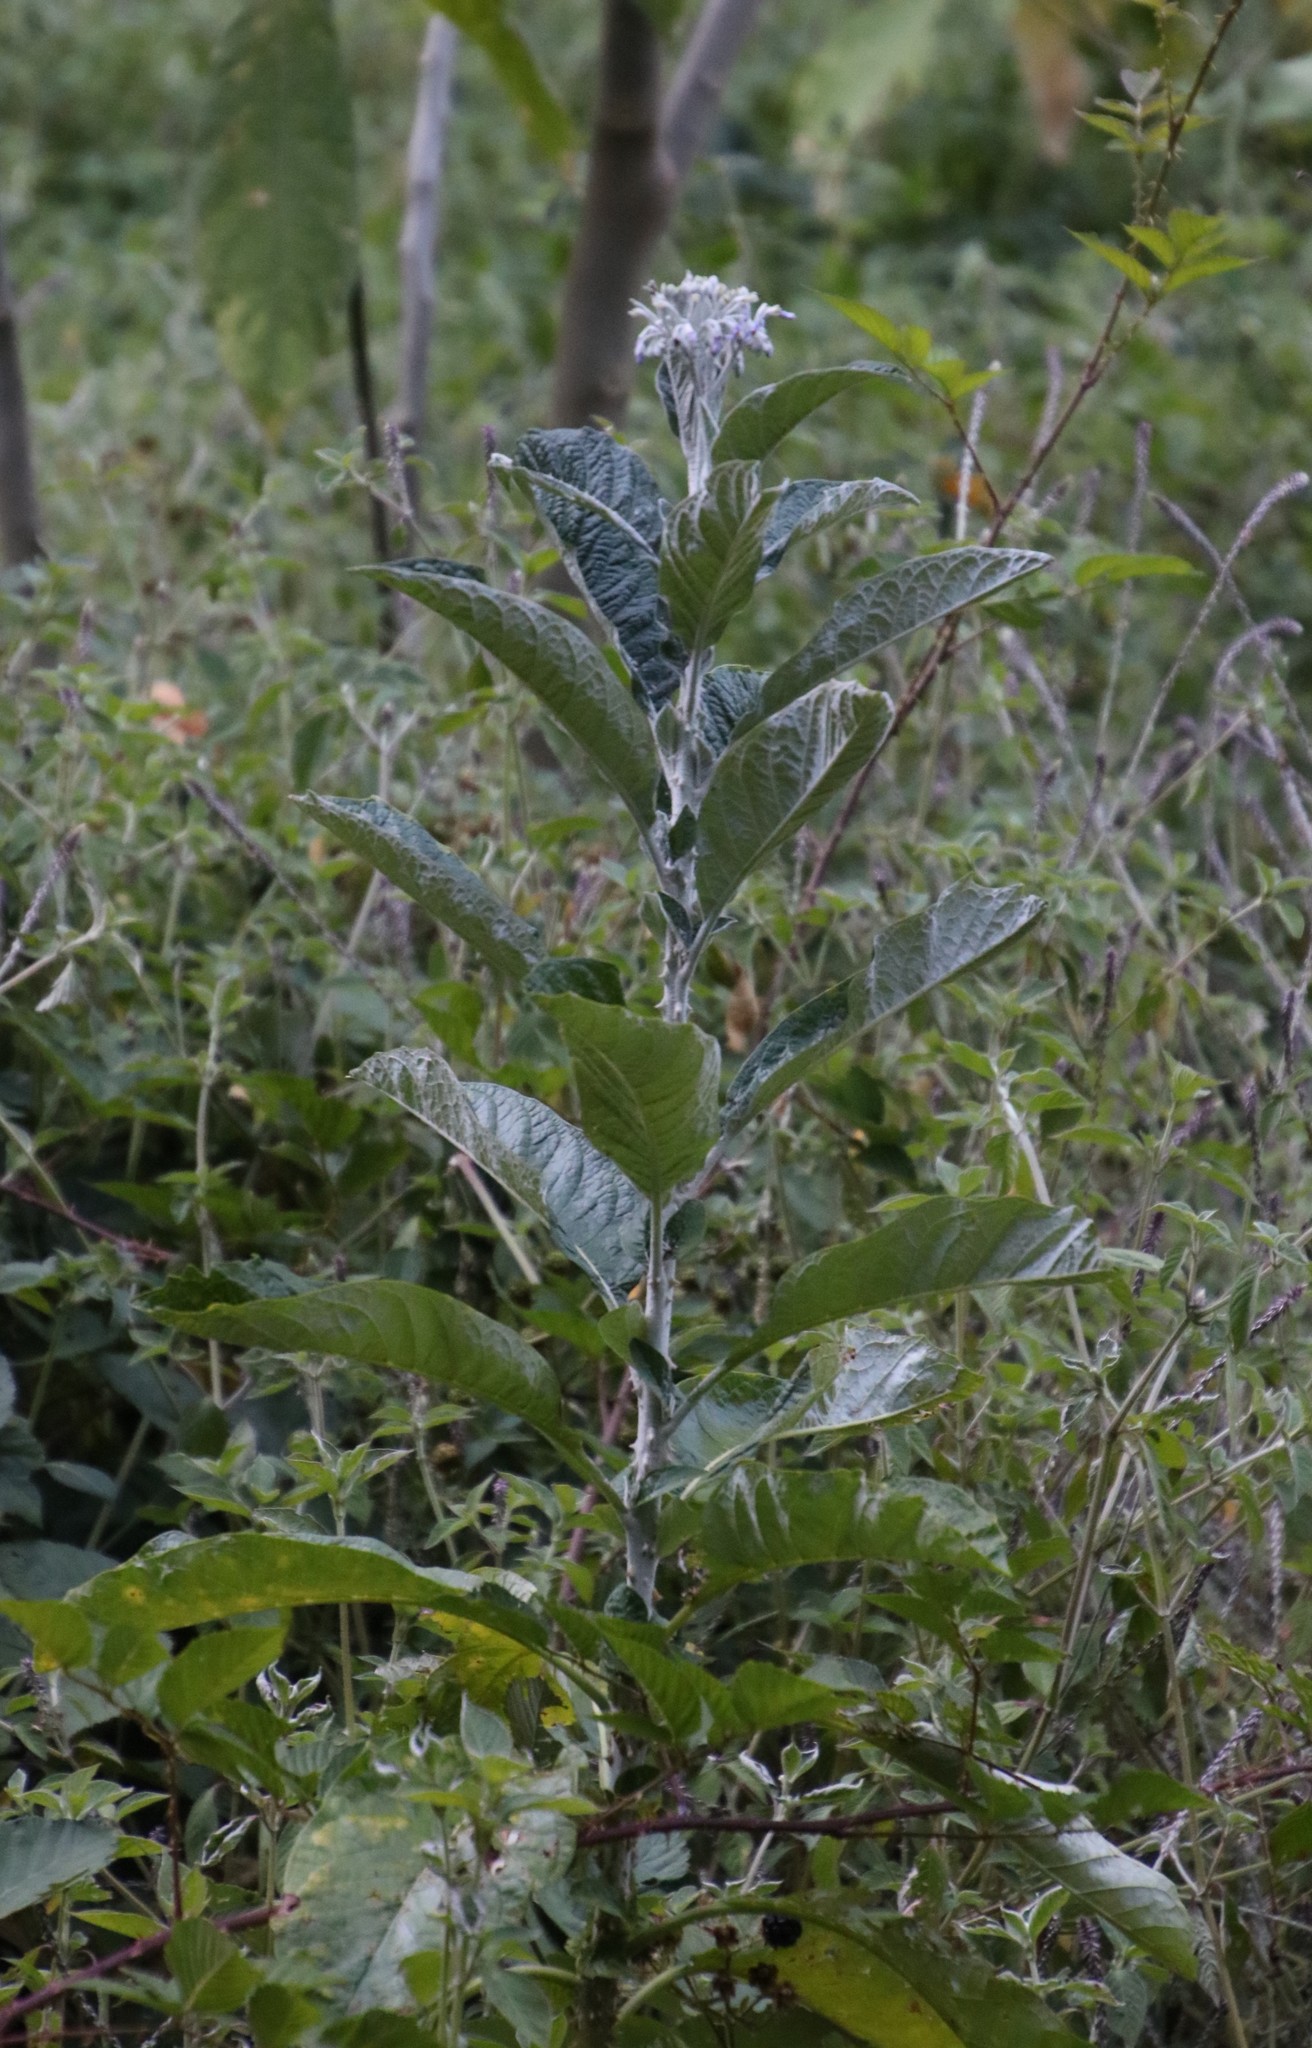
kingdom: Plantae
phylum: Tracheophyta
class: Magnoliopsida
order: Solanales
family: Solanaceae
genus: Solanum
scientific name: Solanum giganteum
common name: Healing-leaf-tree
